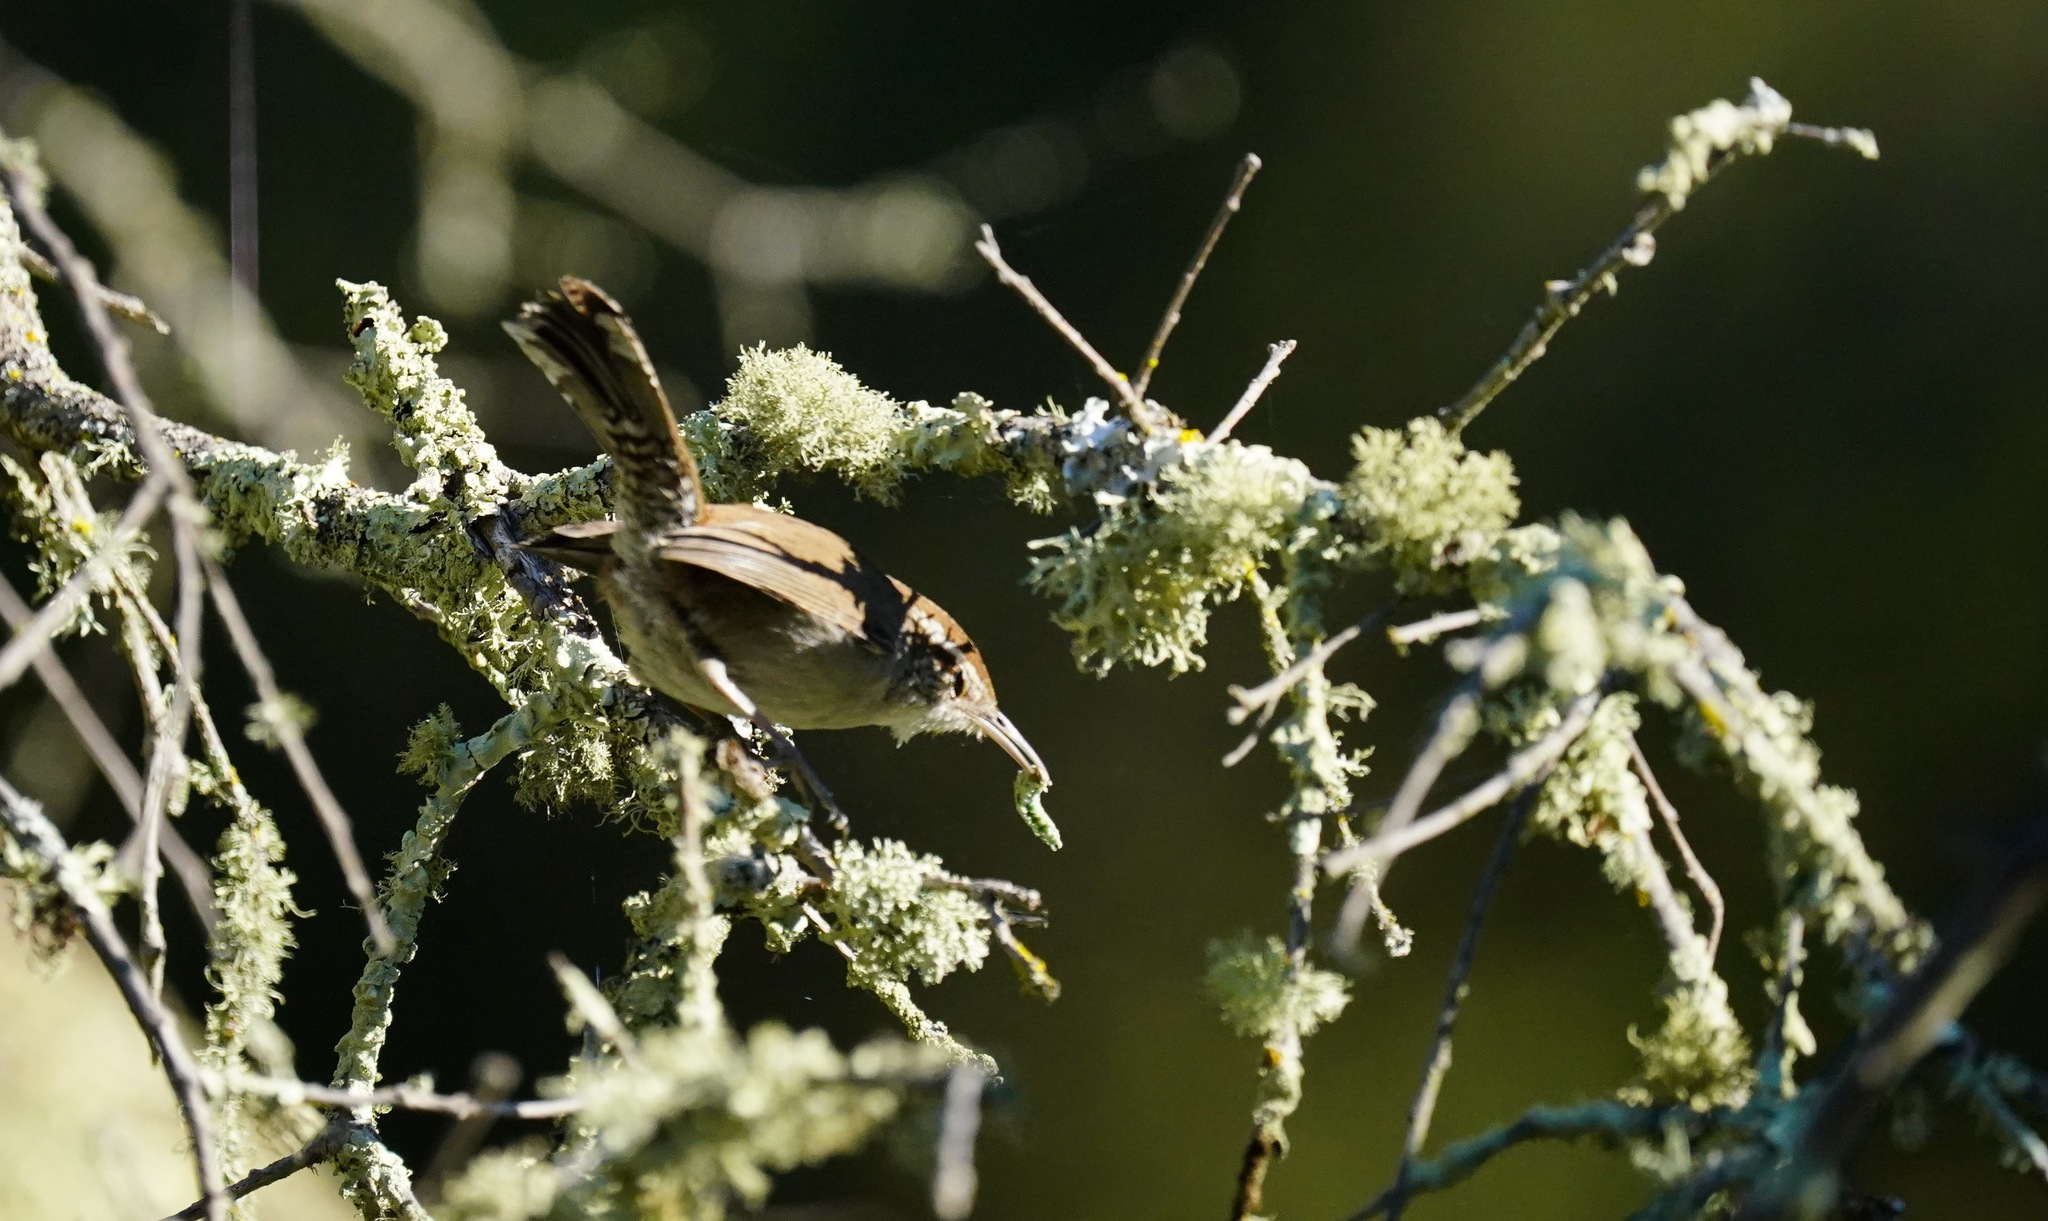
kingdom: Animalia
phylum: Chordata
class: Aves
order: Passeriformes
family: Troglodytidae
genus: Thryomanes
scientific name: Thryomanes bewickii
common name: Bewick's wren
